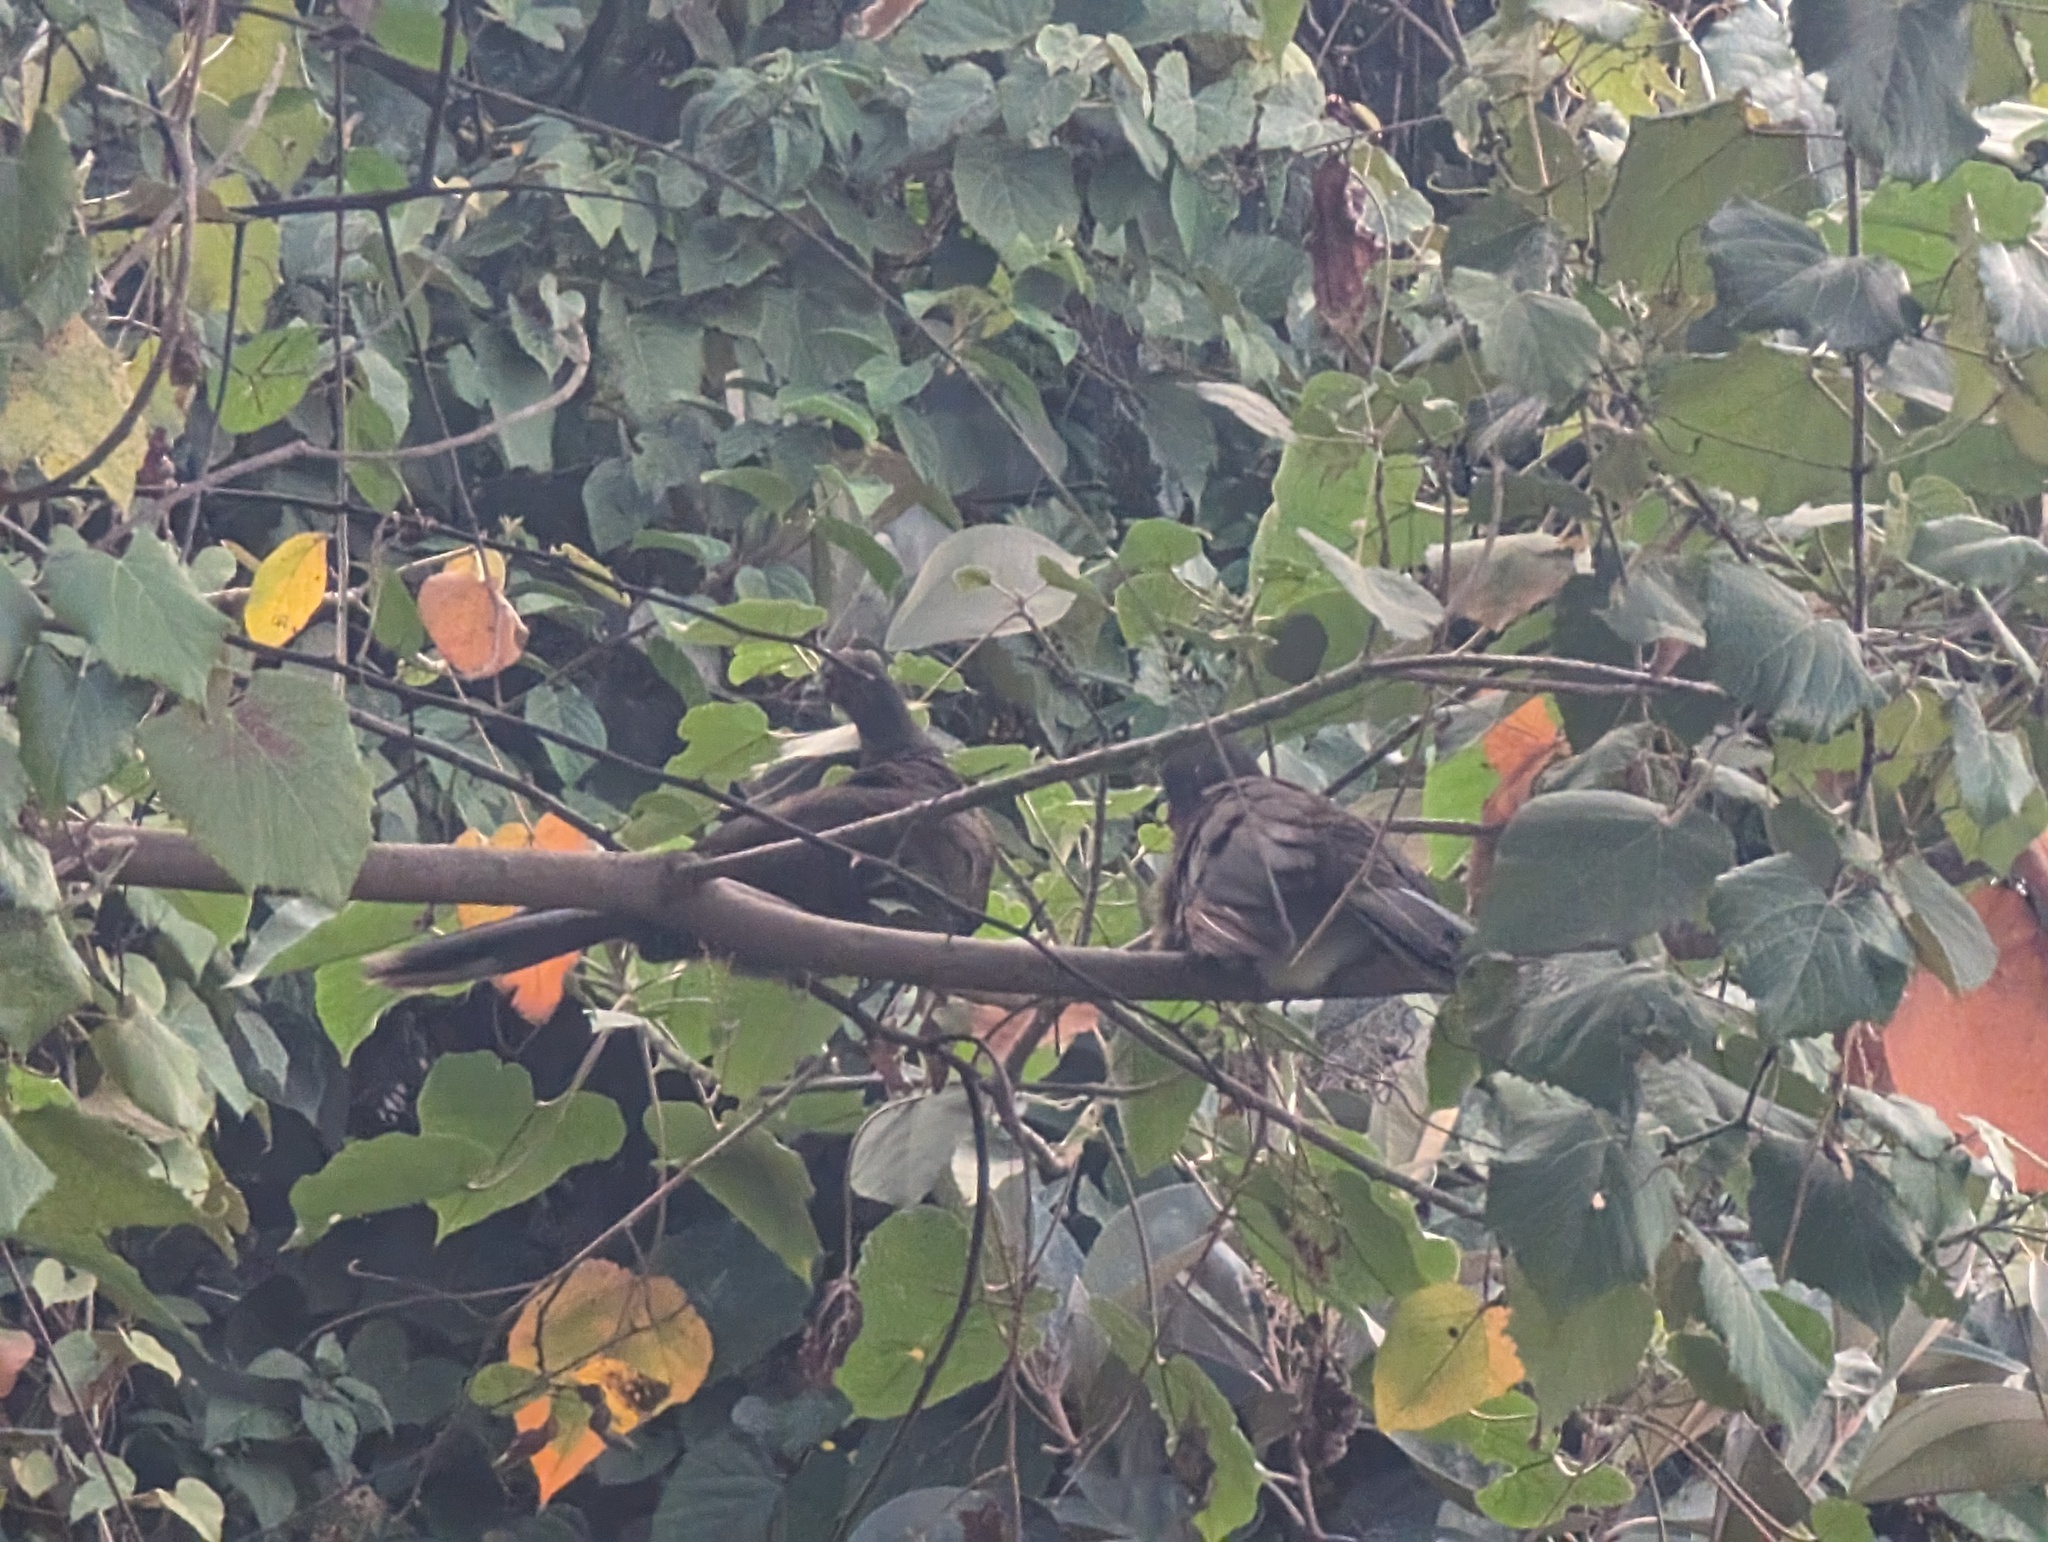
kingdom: Animalia
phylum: Chordata
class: Aves
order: Galliformes
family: Cracidae
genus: Ortalis
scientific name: Ortalis cinereiceps
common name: Grey-headed chachalaca
